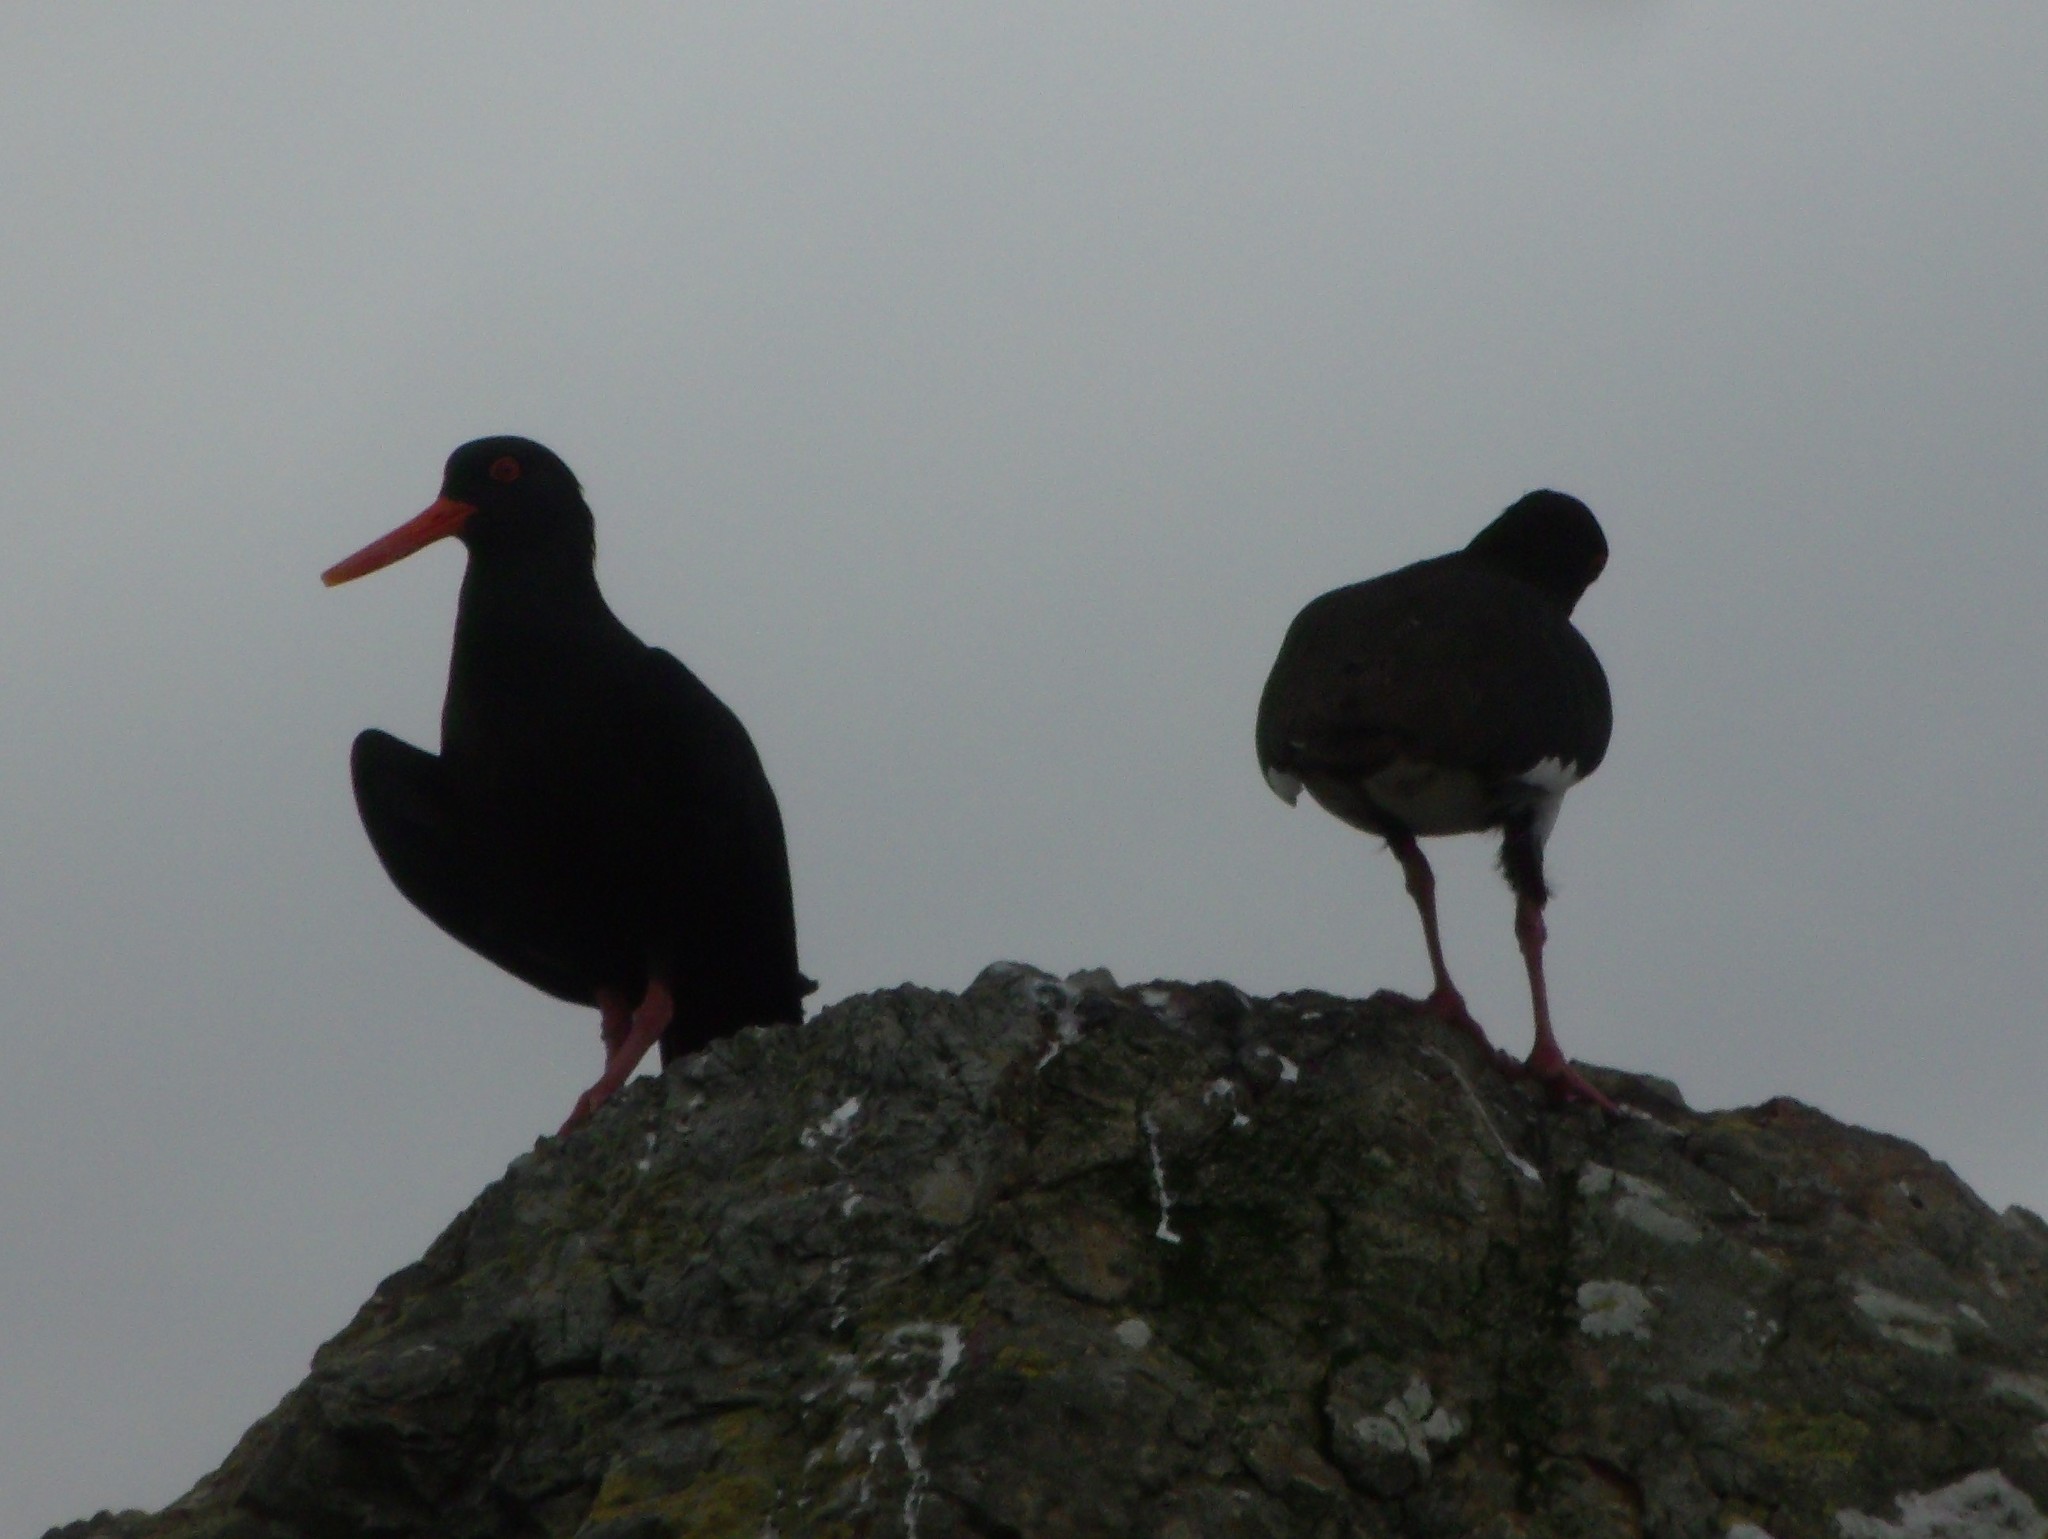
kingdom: Animalia
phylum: Chordata
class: Aves
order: Charadriiformes
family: Haematopodidae
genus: Haematopus
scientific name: Haematopus unicolor
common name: Variable oystercatcher
